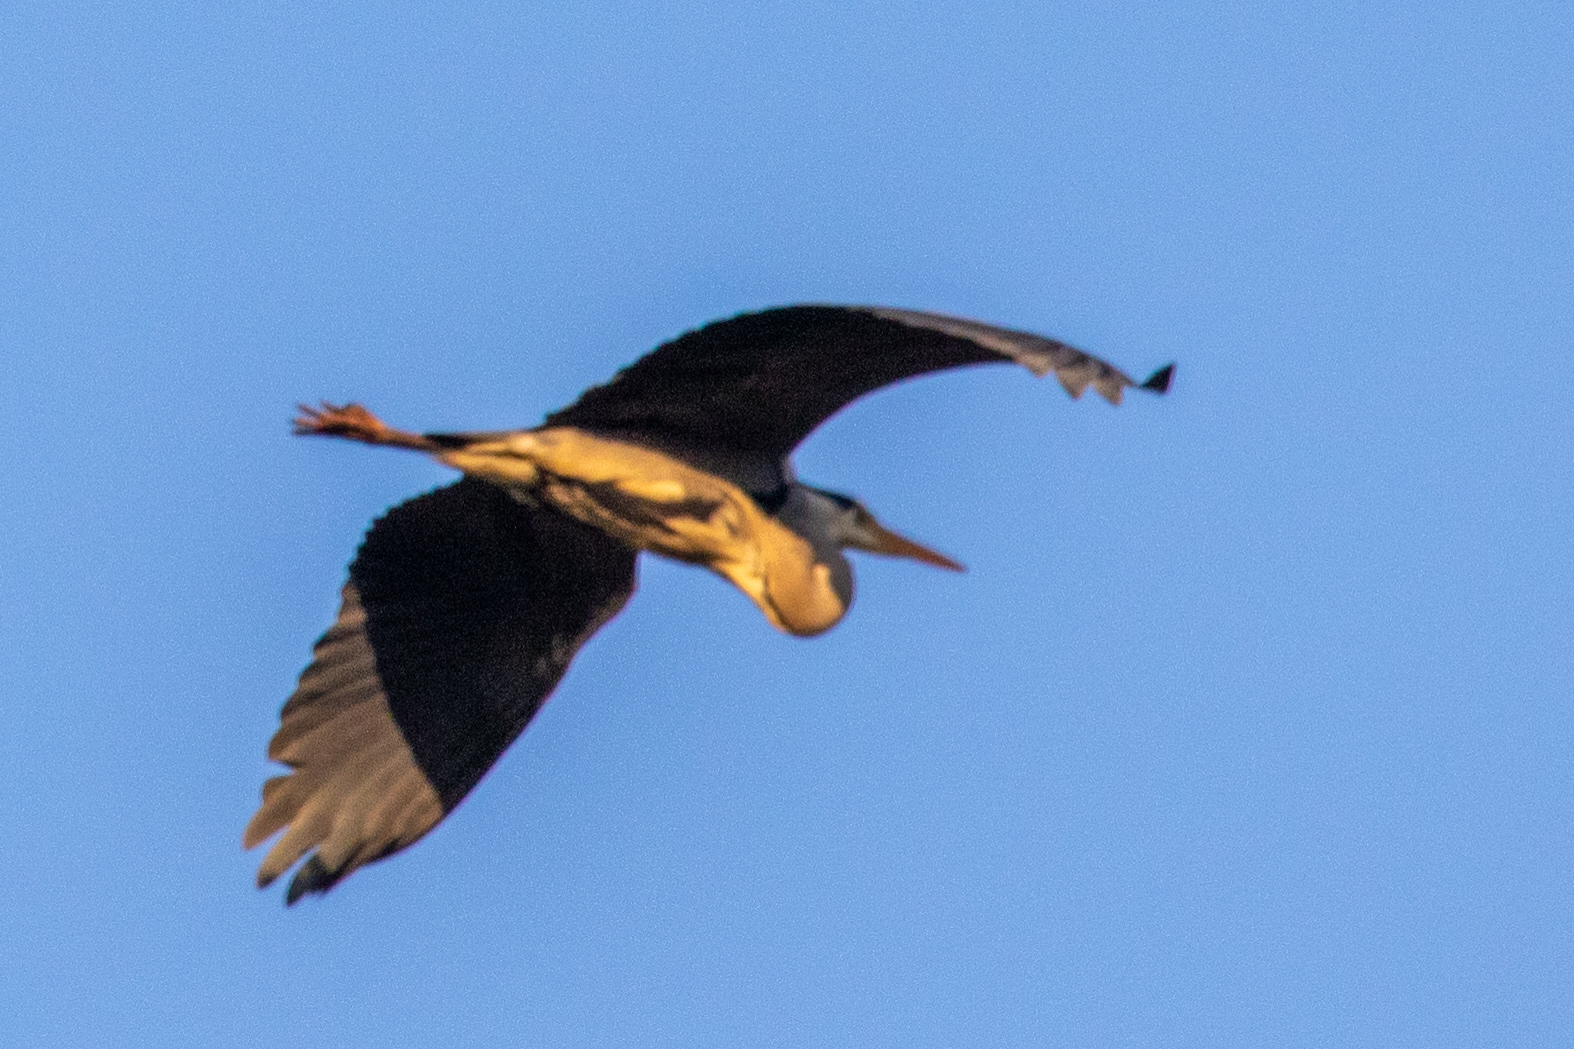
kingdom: Animalia
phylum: Chordata
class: Aves
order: Pelecaniformes
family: Ardeidae
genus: Ardea
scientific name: Ardea cinerea
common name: Grey heron
